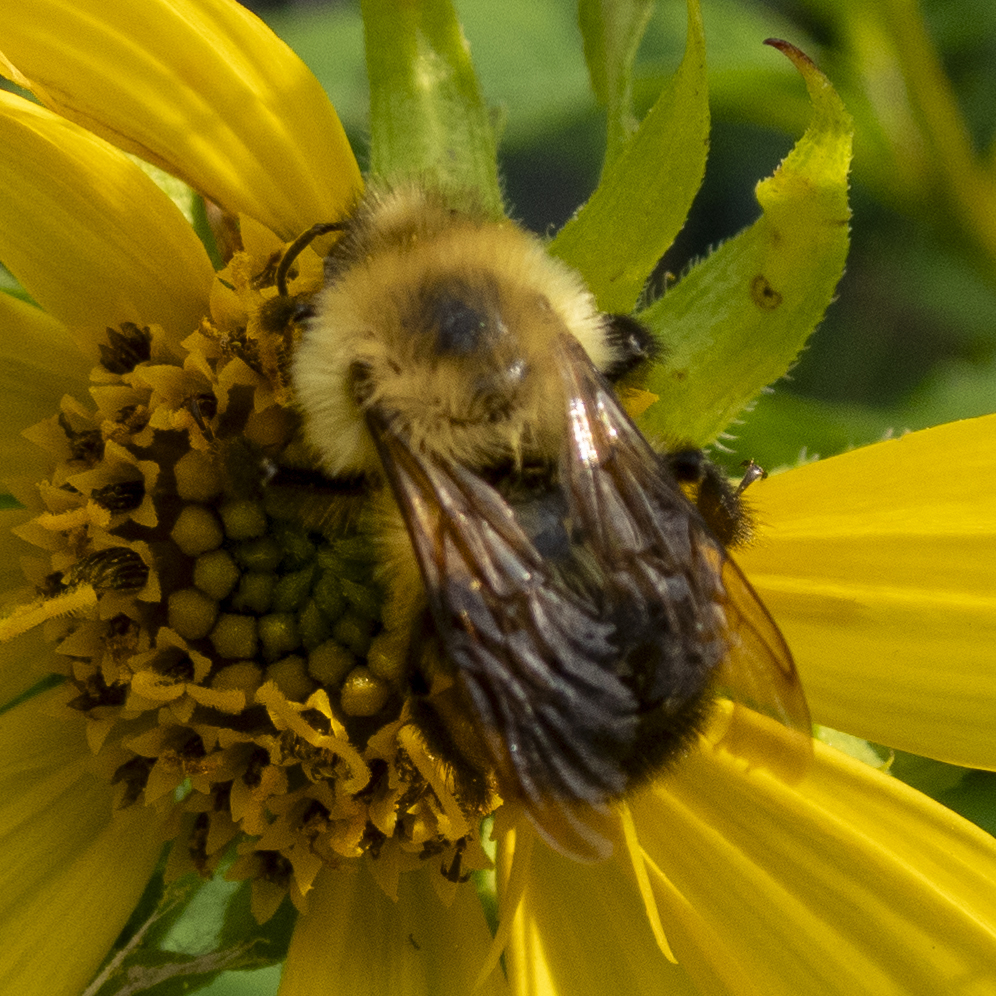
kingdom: Animalia
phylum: Arthropoda
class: Insecta
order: Hymenoptera
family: Apidae
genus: Bombus
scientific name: Bombus bimaculatus
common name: Two-spotted bumble bee
